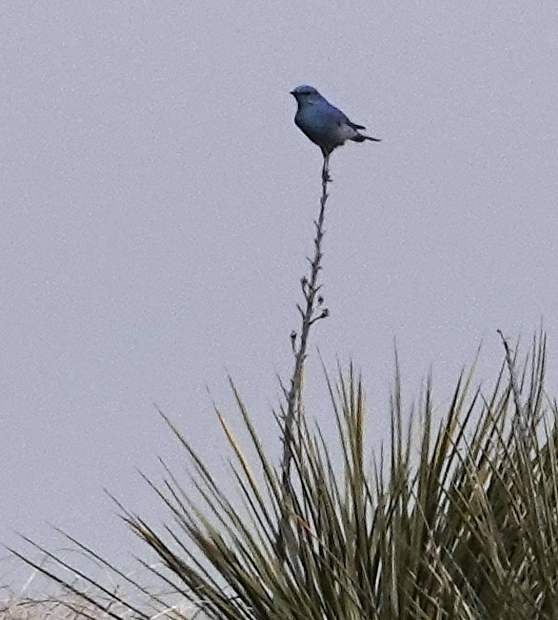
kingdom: Animalia
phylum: Chordata
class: Aves
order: Passeriformes
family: Turdidae
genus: Sialia
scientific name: Sialia currucoides
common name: Mountain bluebird
